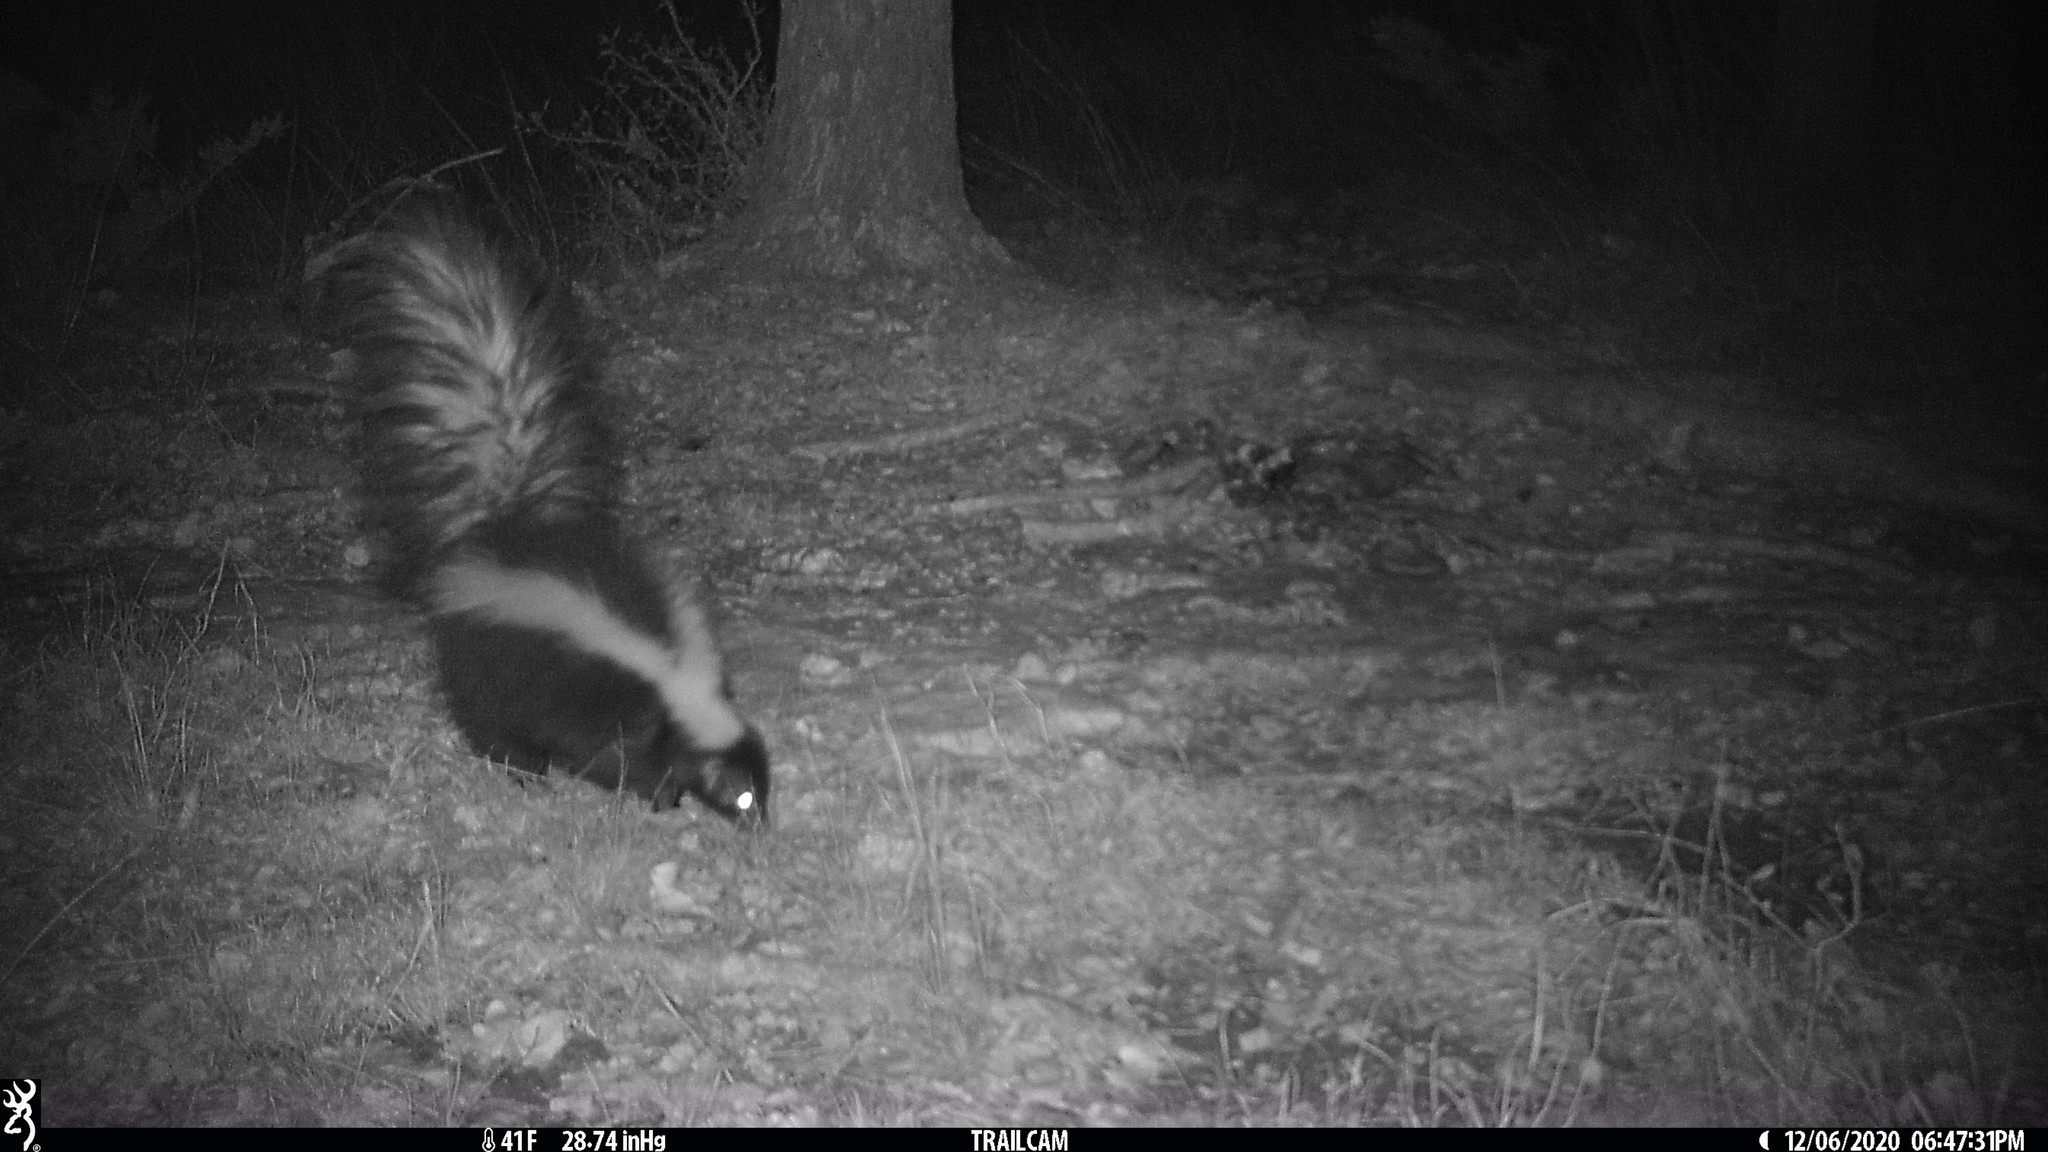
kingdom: Animalia
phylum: Chordata
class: Mammalia
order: Carnivora
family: Mephitidae
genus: Mephitis
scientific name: Mephitis mephitis
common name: Striped skunk
